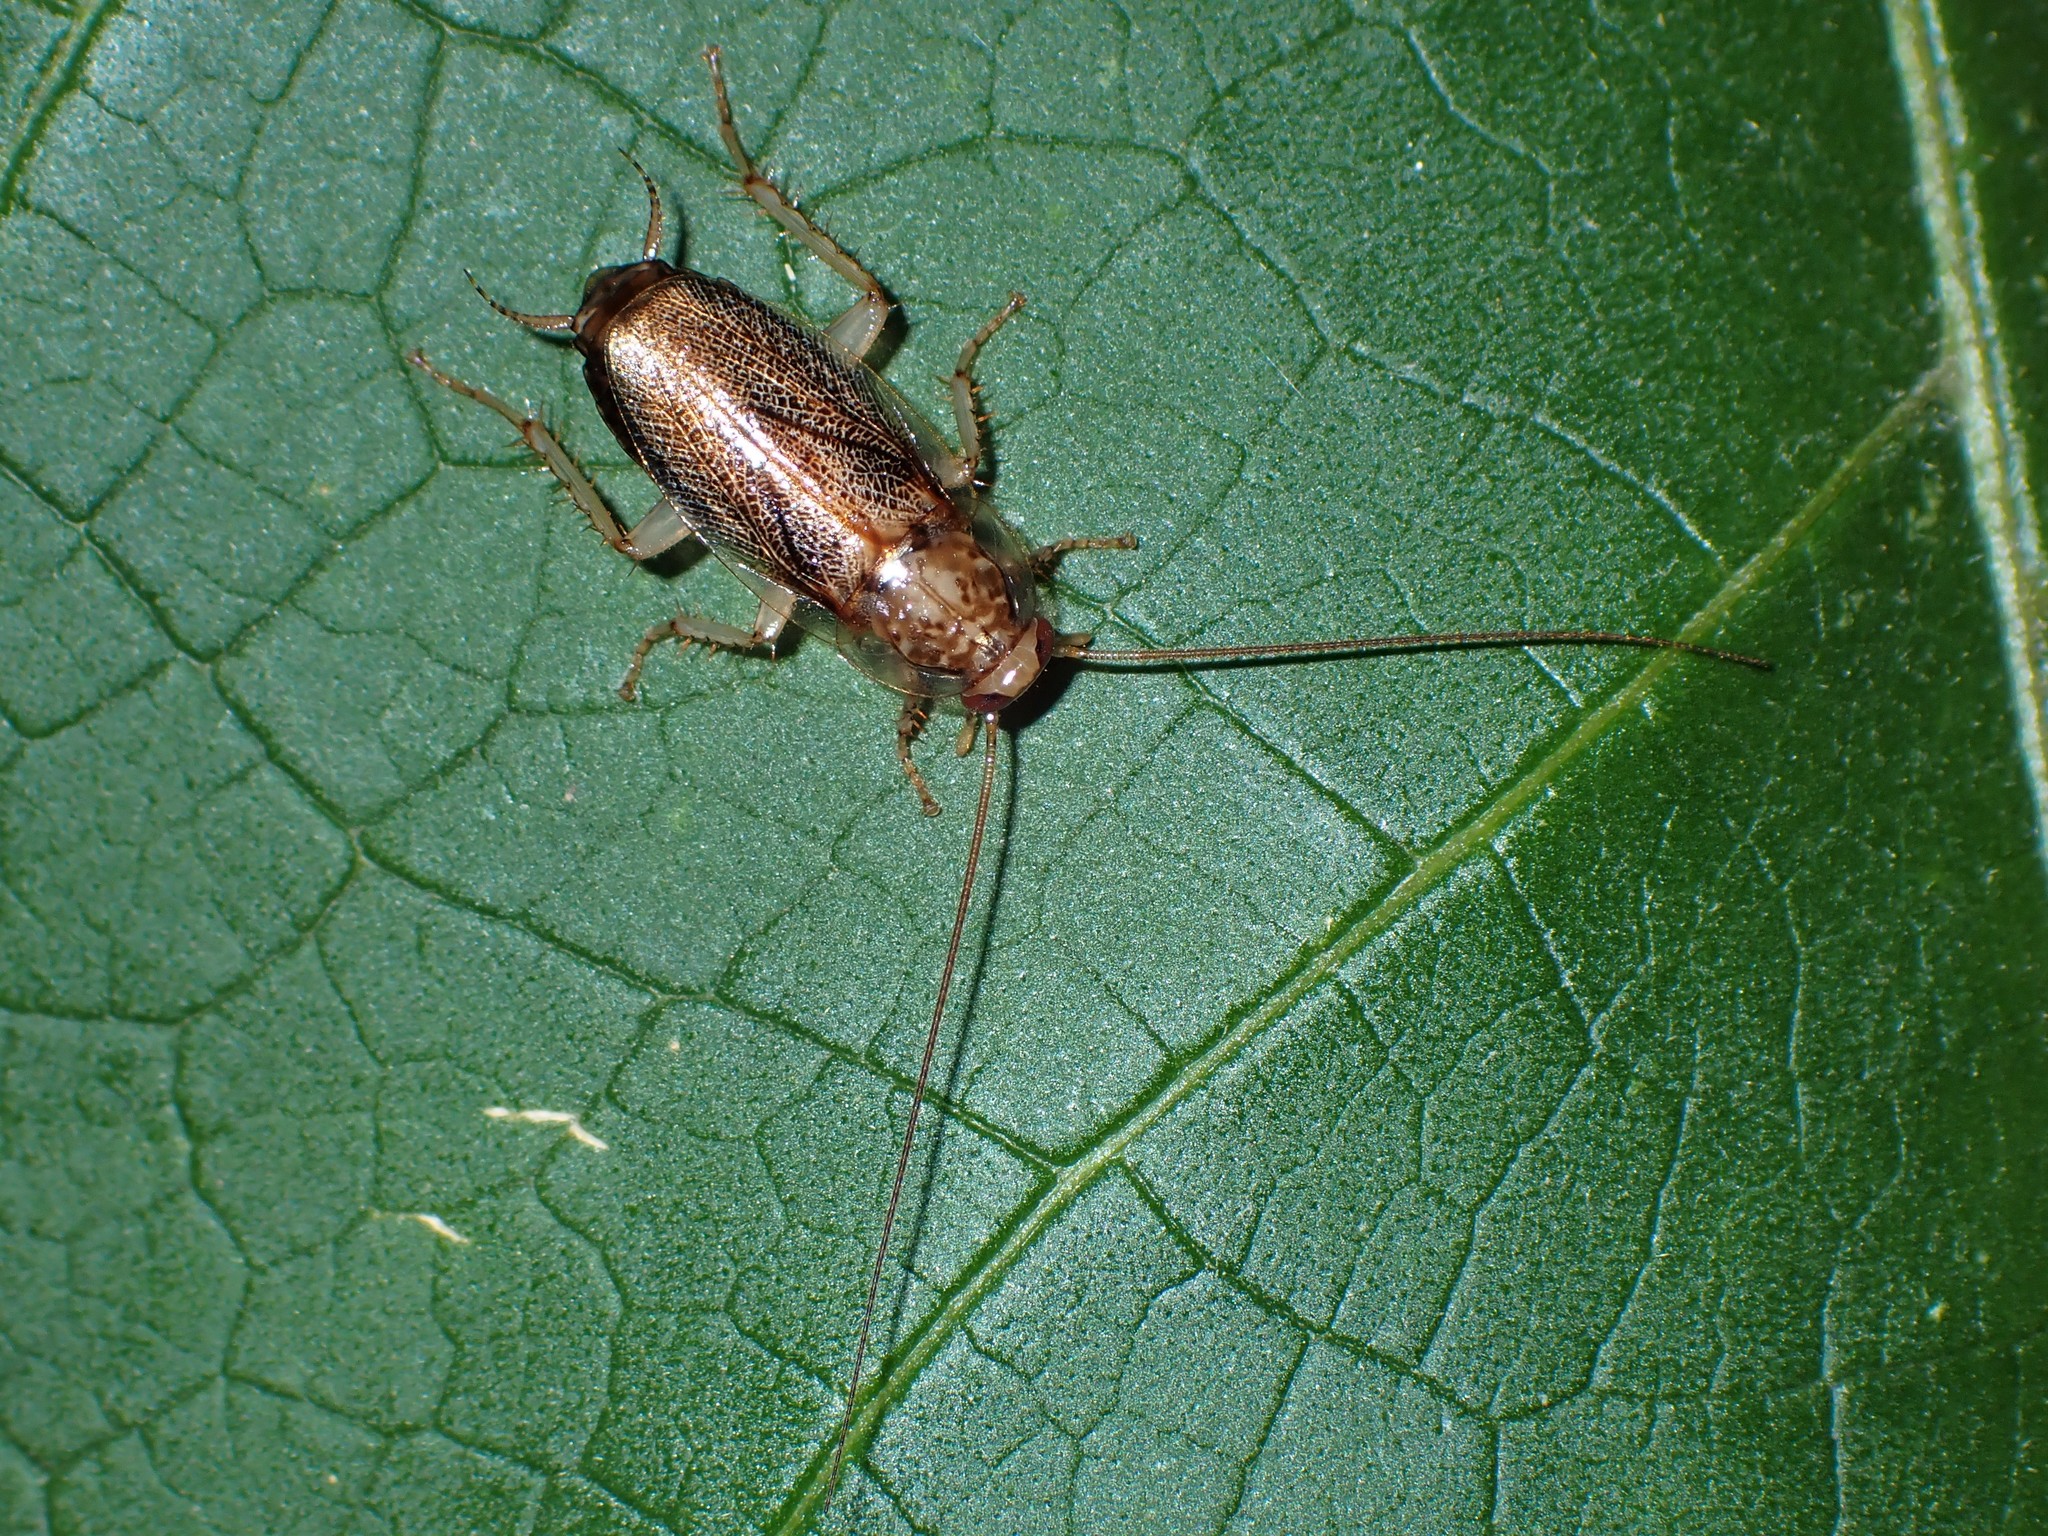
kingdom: Animalia
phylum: Arthropoda
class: Insecta
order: Blattodea
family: Ectobiidae
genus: Parellipsidion
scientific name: Parellipsidion latipenne
